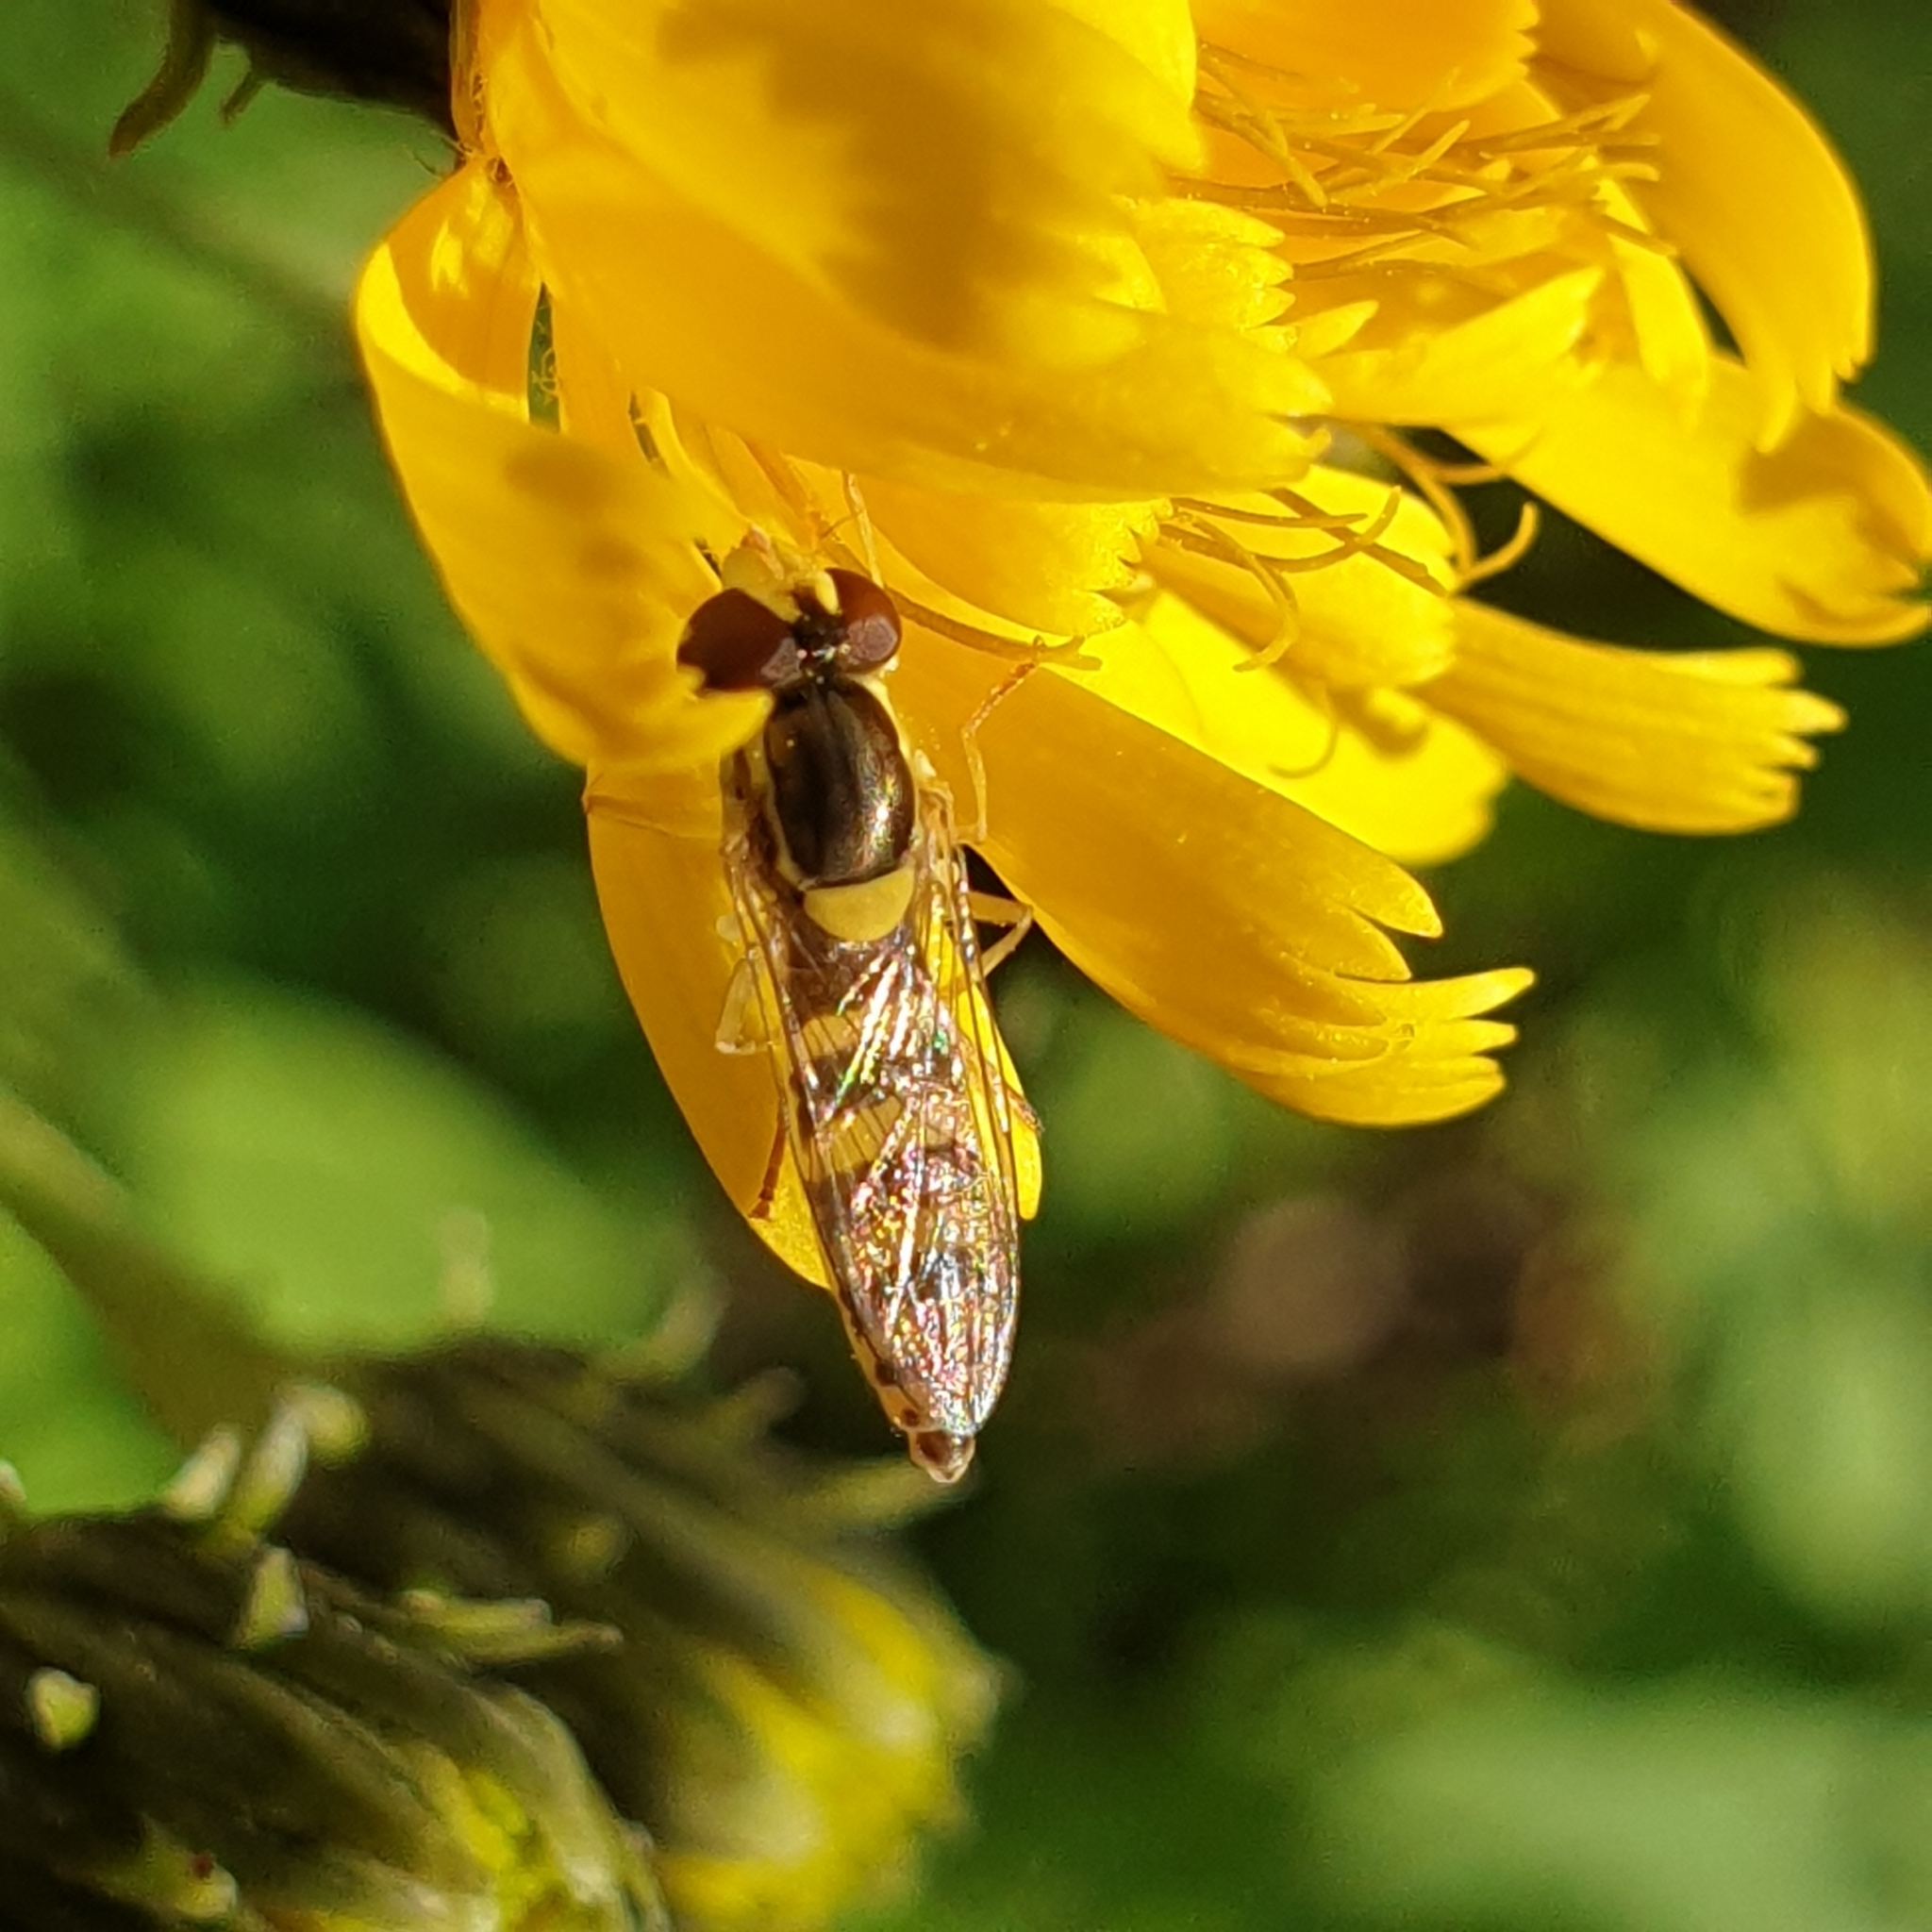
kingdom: Animalia
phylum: Arthropoda
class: Insecta
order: Diptera
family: Syrphidae
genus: Sphaerophoria
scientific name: Sphaerophoria
